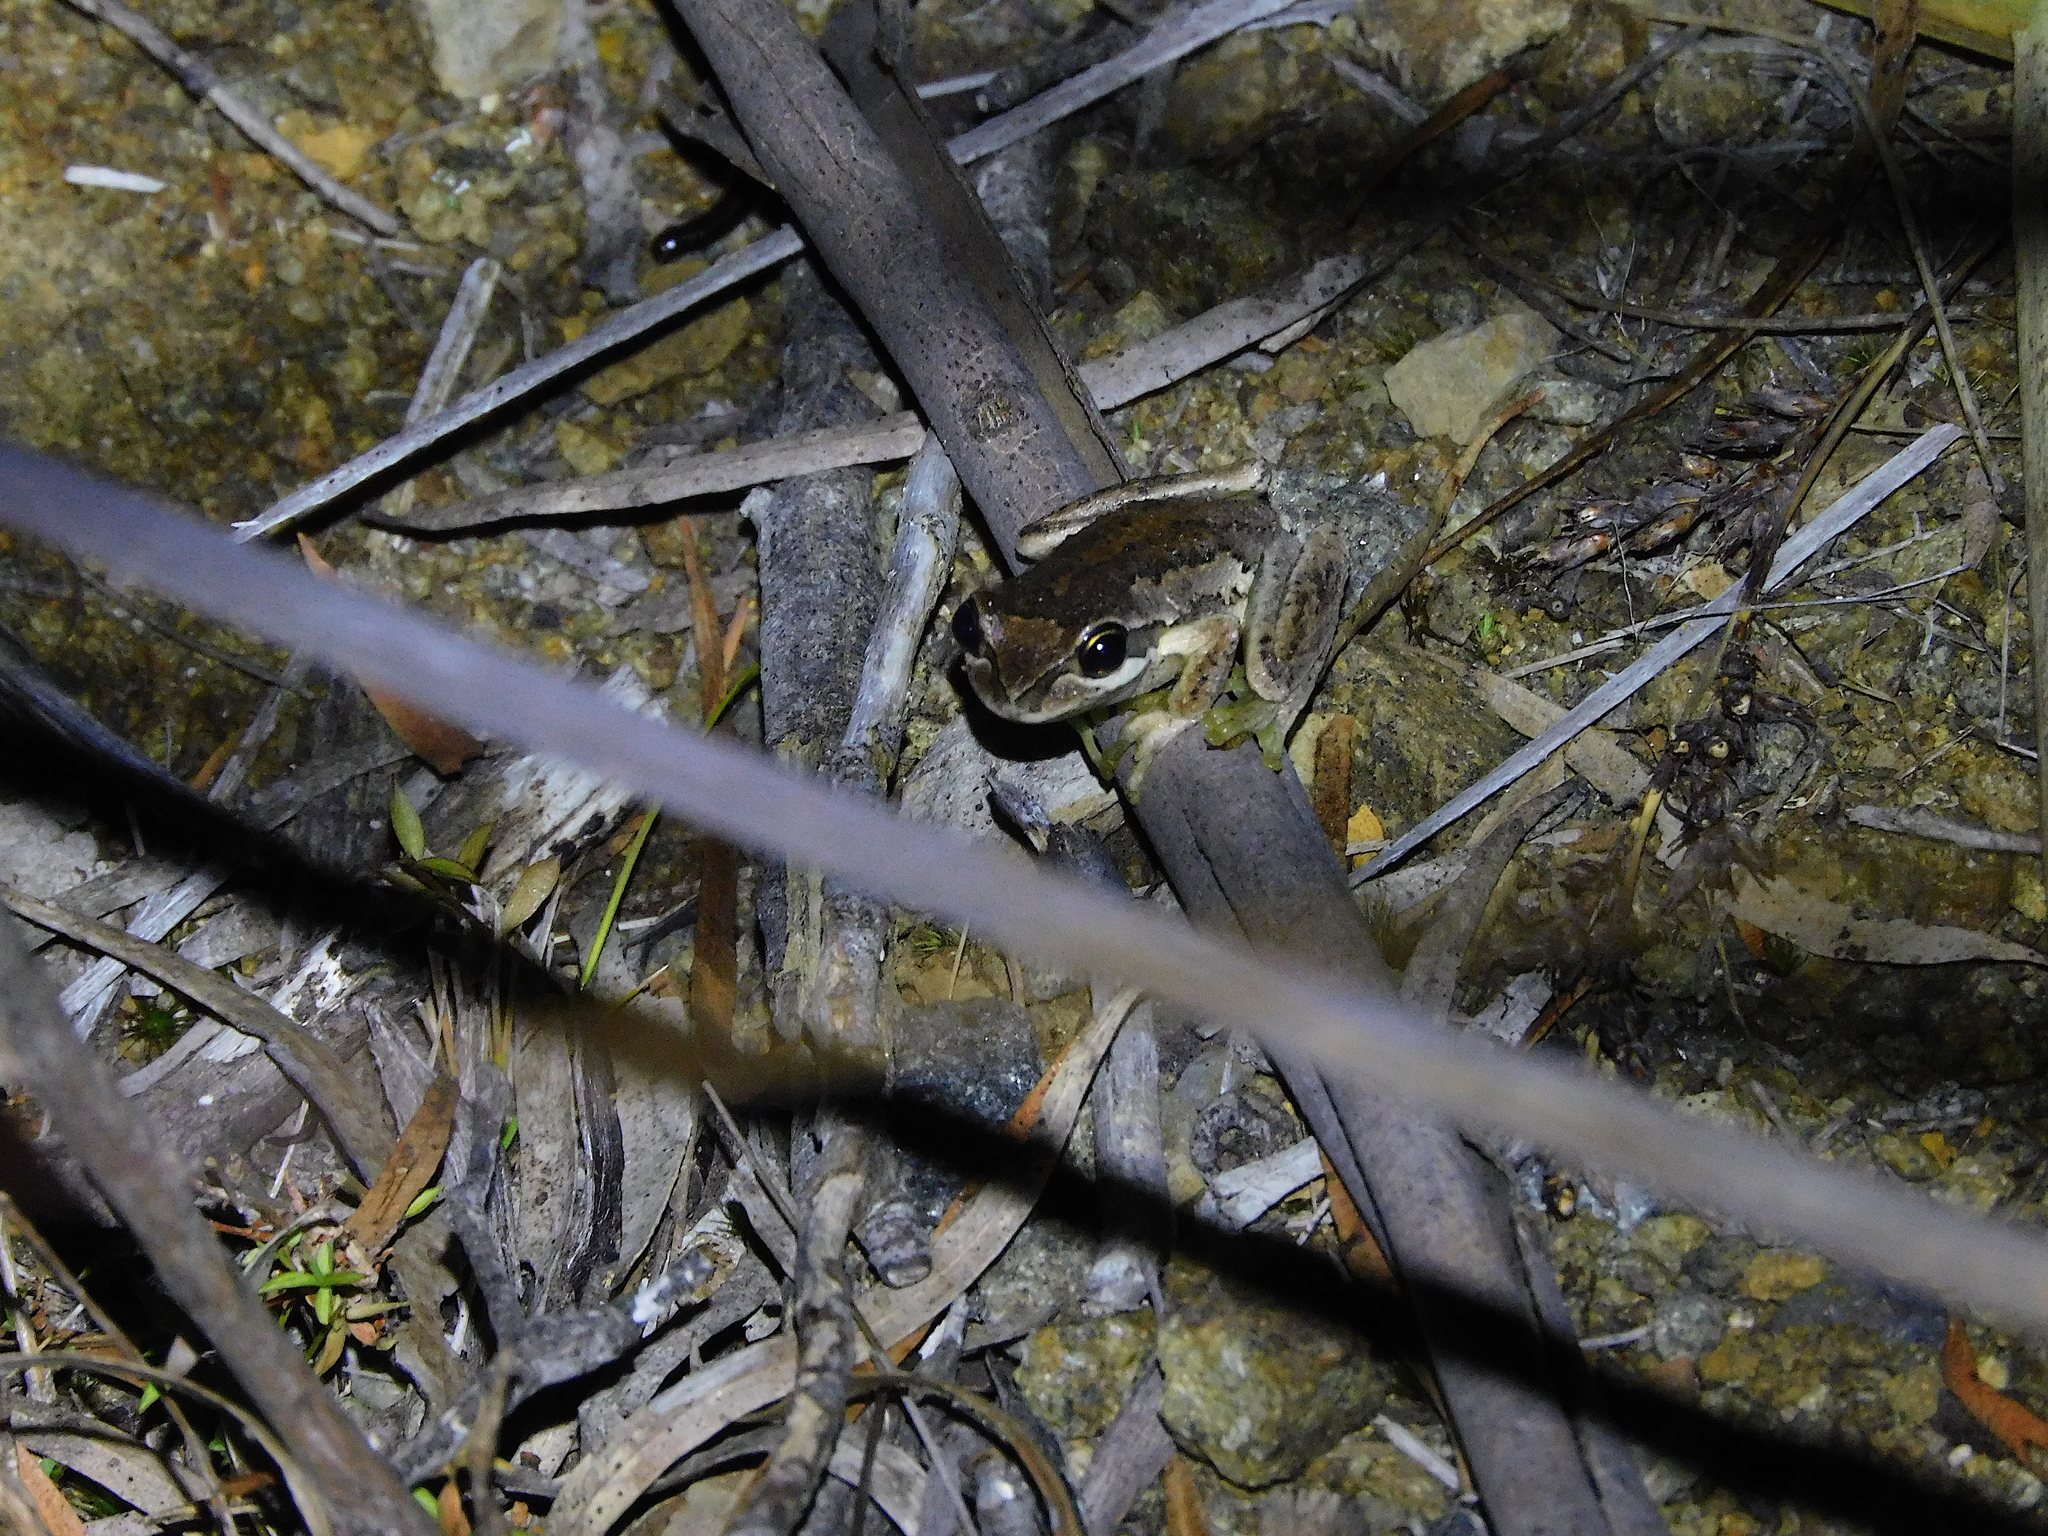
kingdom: Animalia
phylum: Chordata
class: Amphibia
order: Anura
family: Pelodryadidae
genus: Litoria
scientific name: Litoria ewingii
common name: Southern brown tree frog
